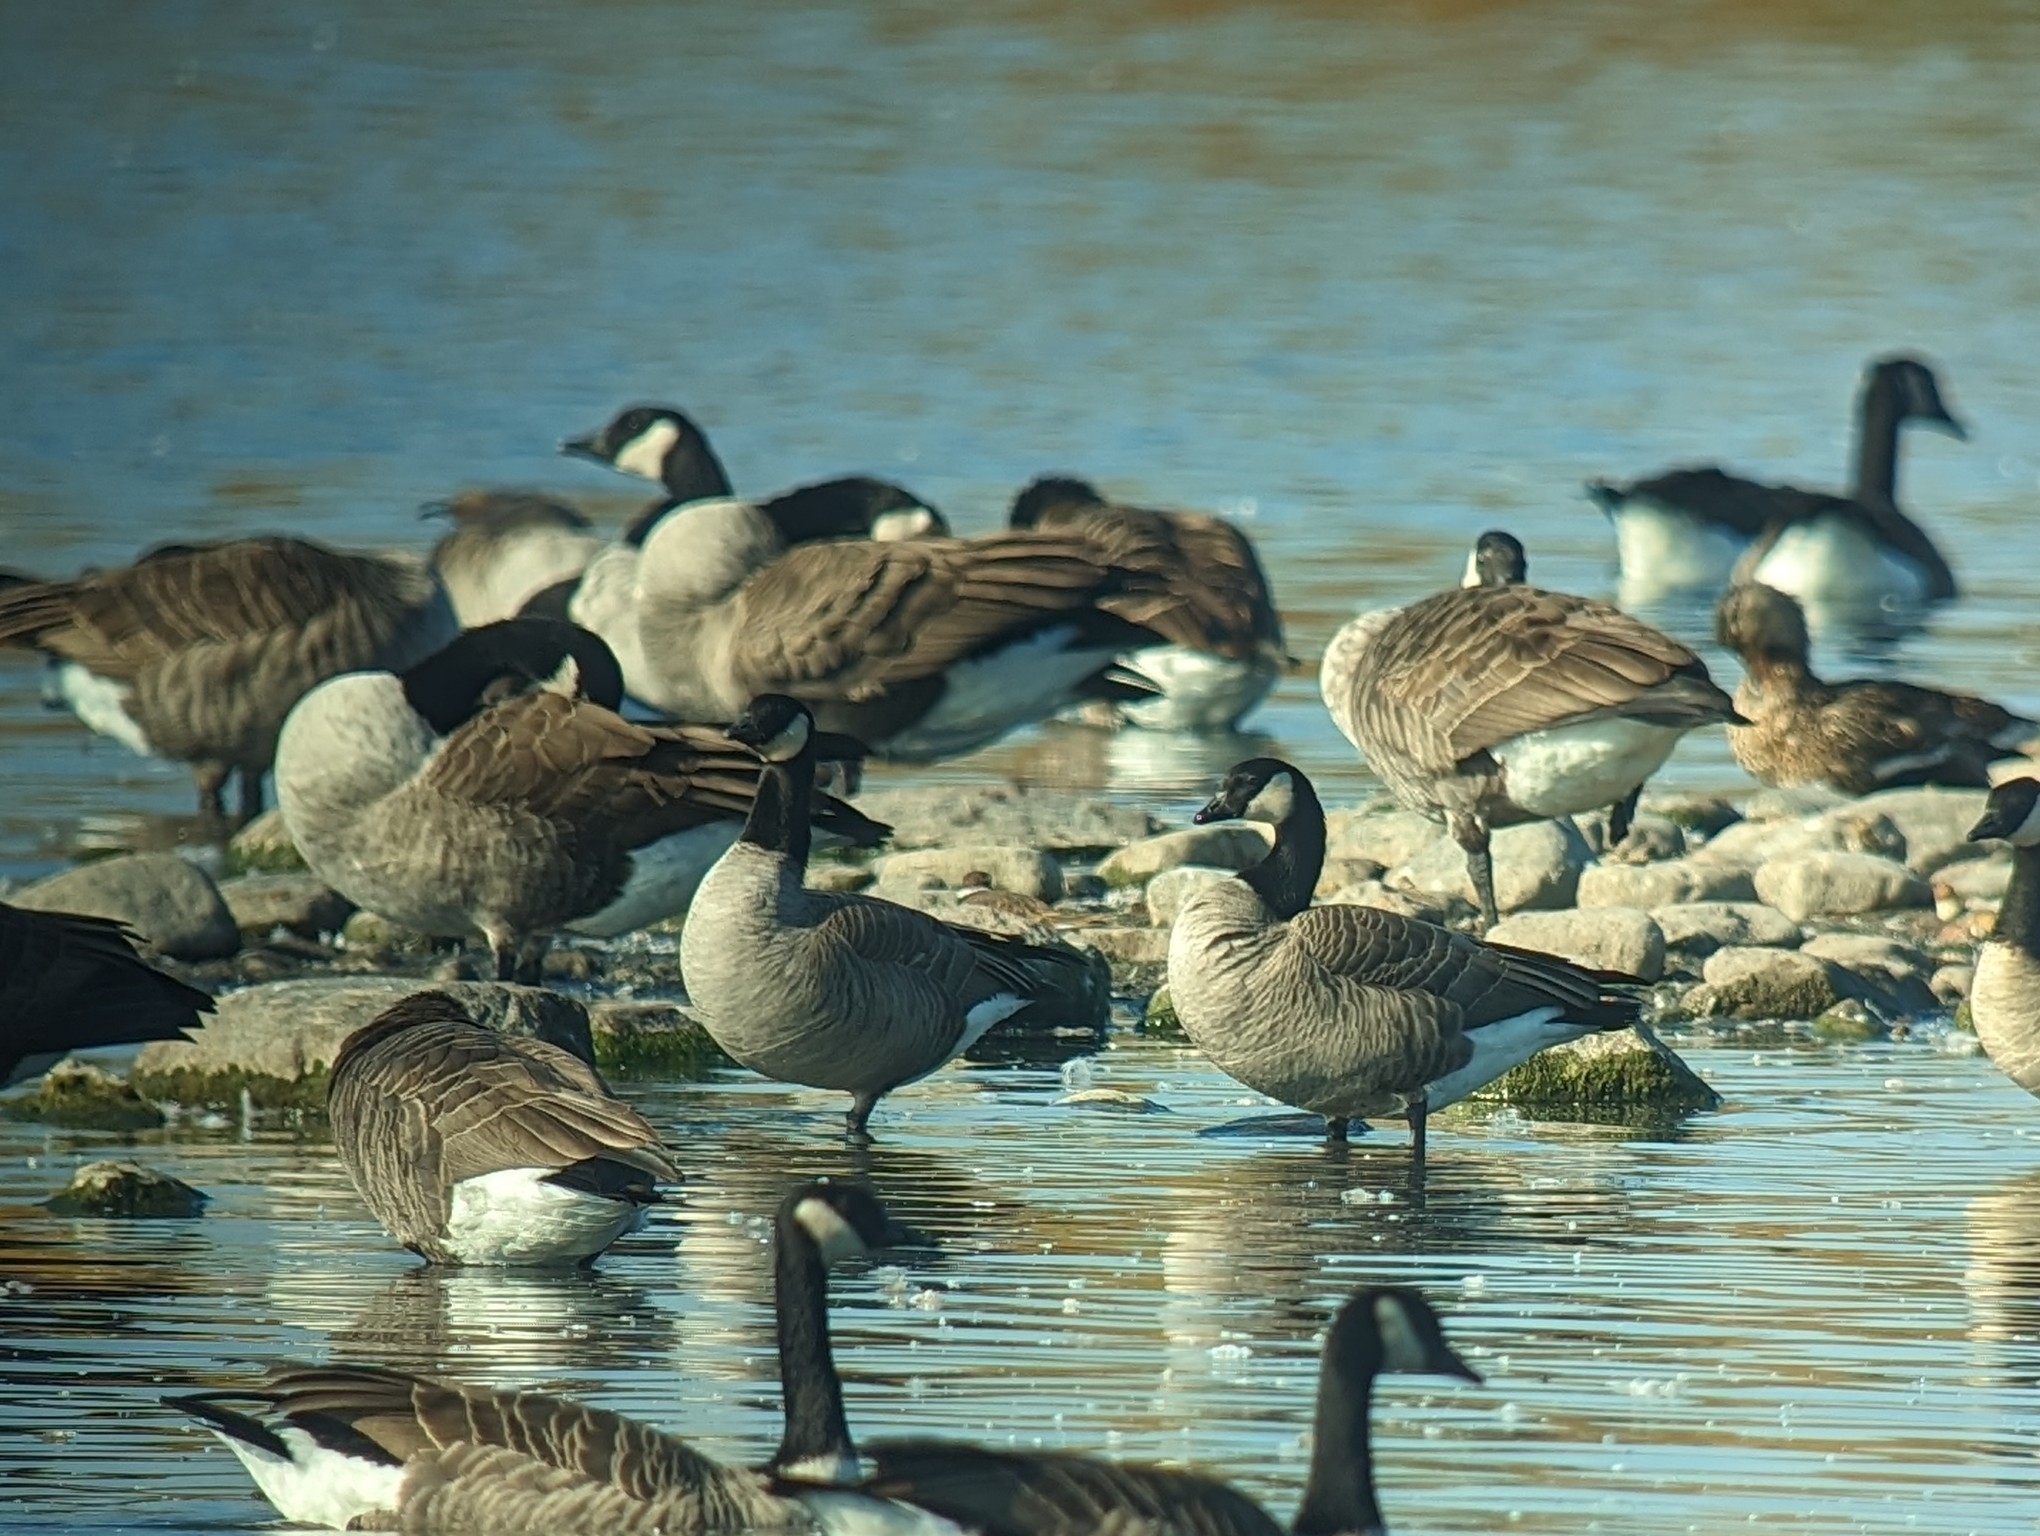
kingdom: Animalia
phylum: Chordata
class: Aves
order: Anseriformes
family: Anatidae
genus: Branta
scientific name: Branta hutchinsii
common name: Cackling goose
